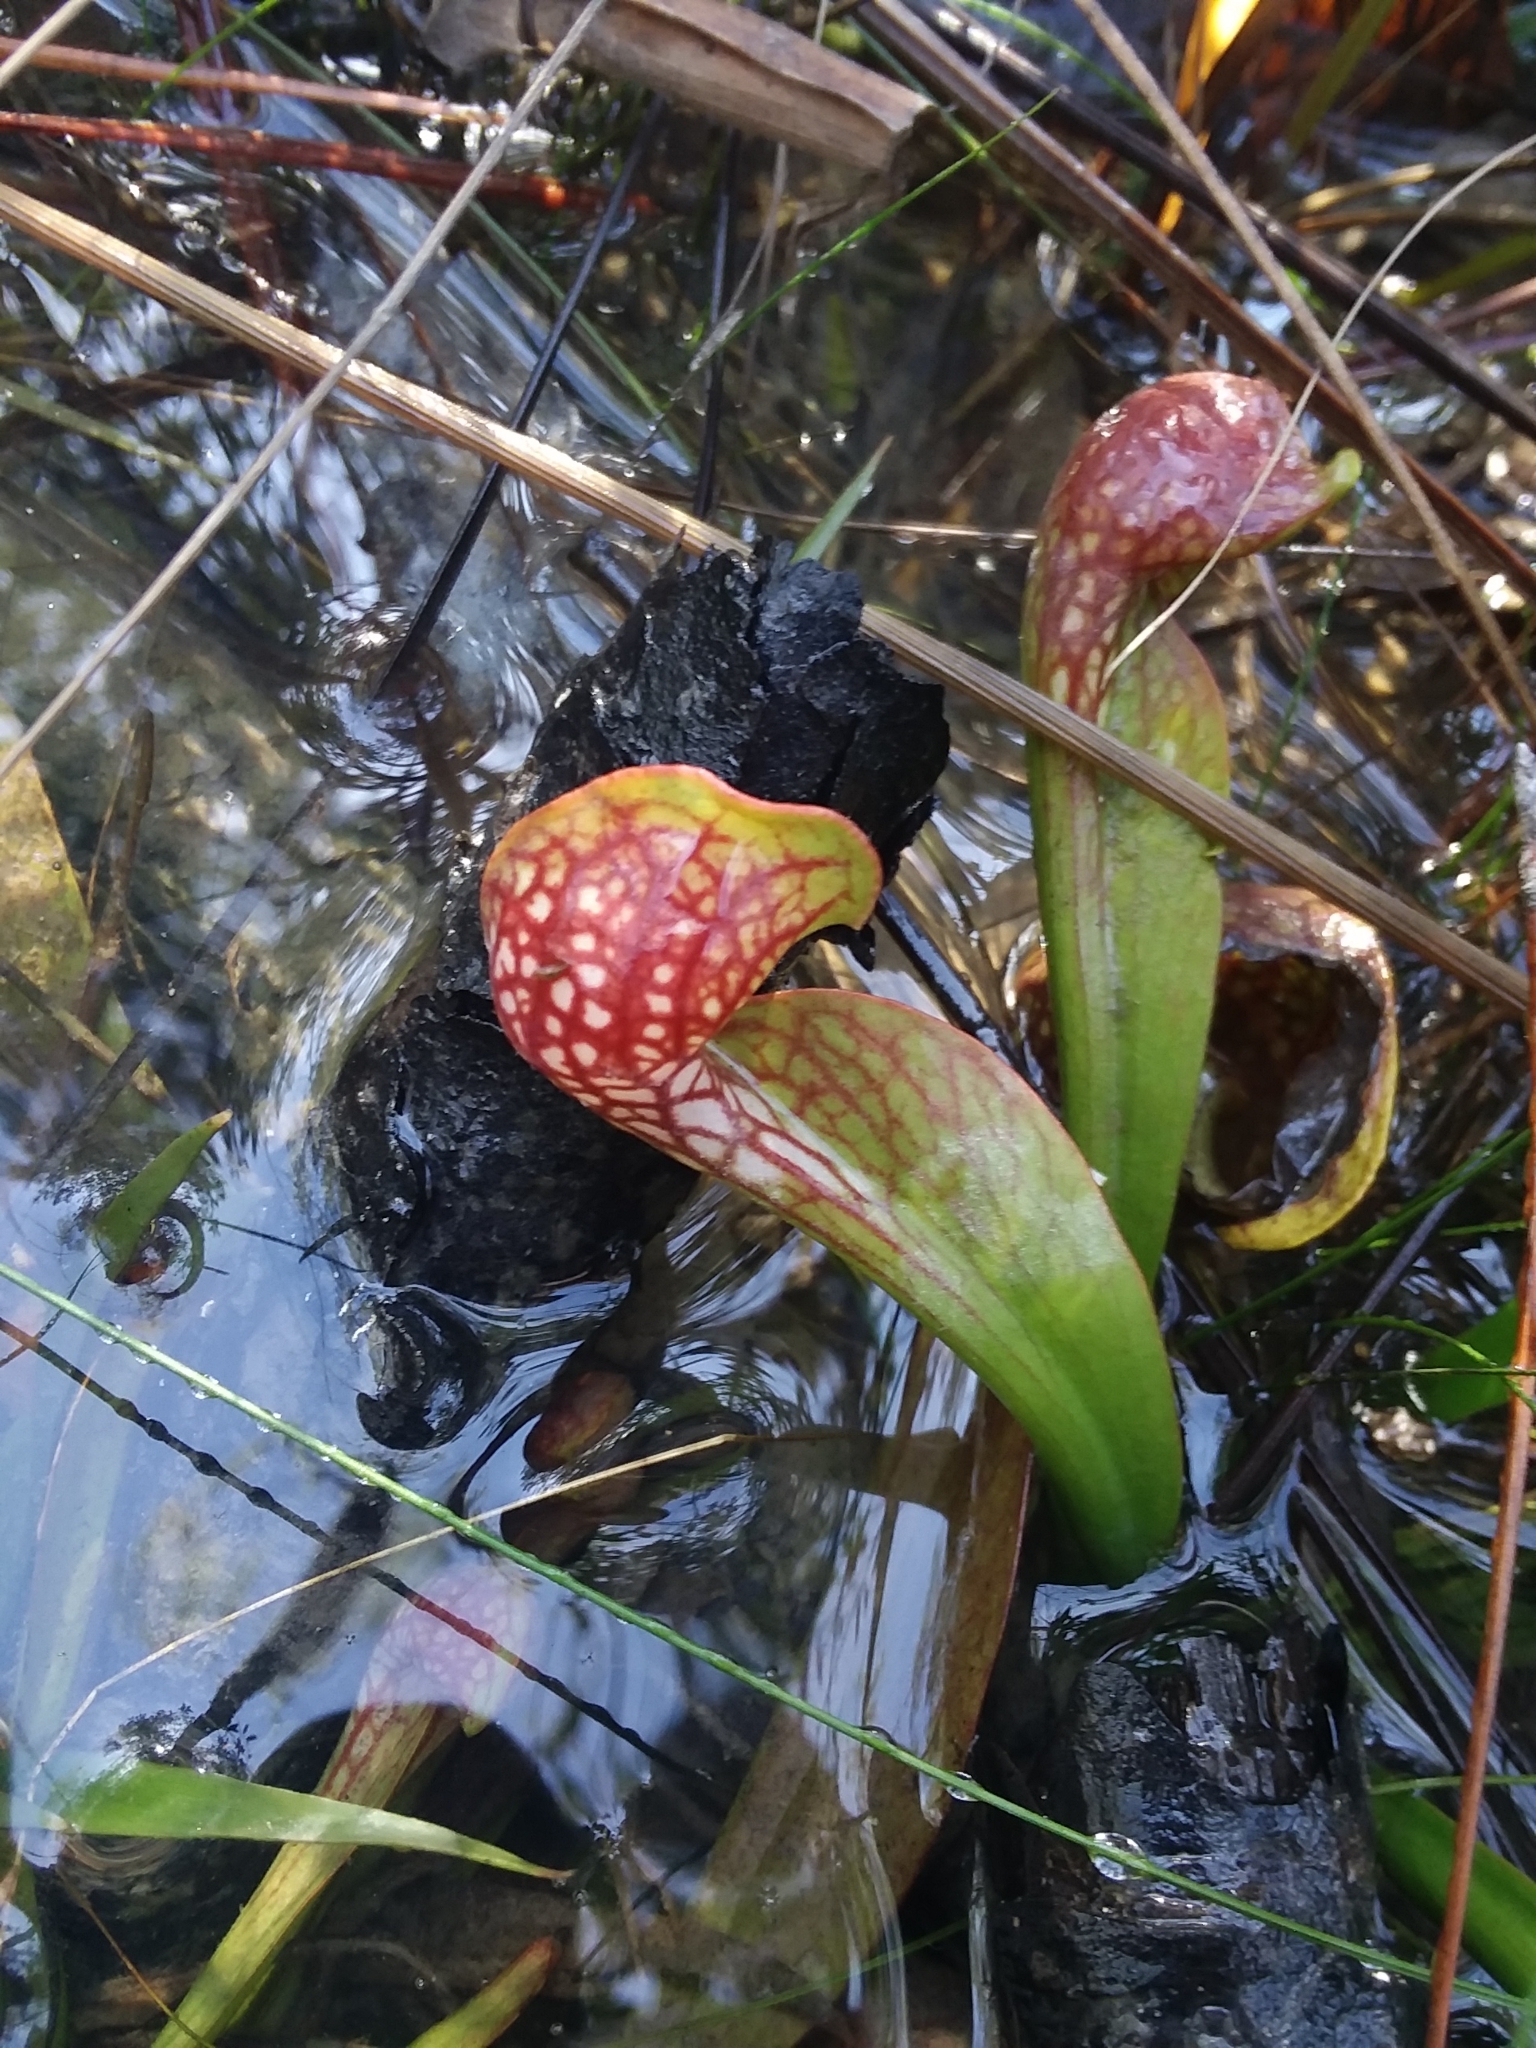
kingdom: Plantae
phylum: Tracheophyta
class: Magnoliopsida
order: Ericales
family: Sarraceniaceae
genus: Sarracenia
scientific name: Sarracenia psittacina
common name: Parrot pitcherplant
